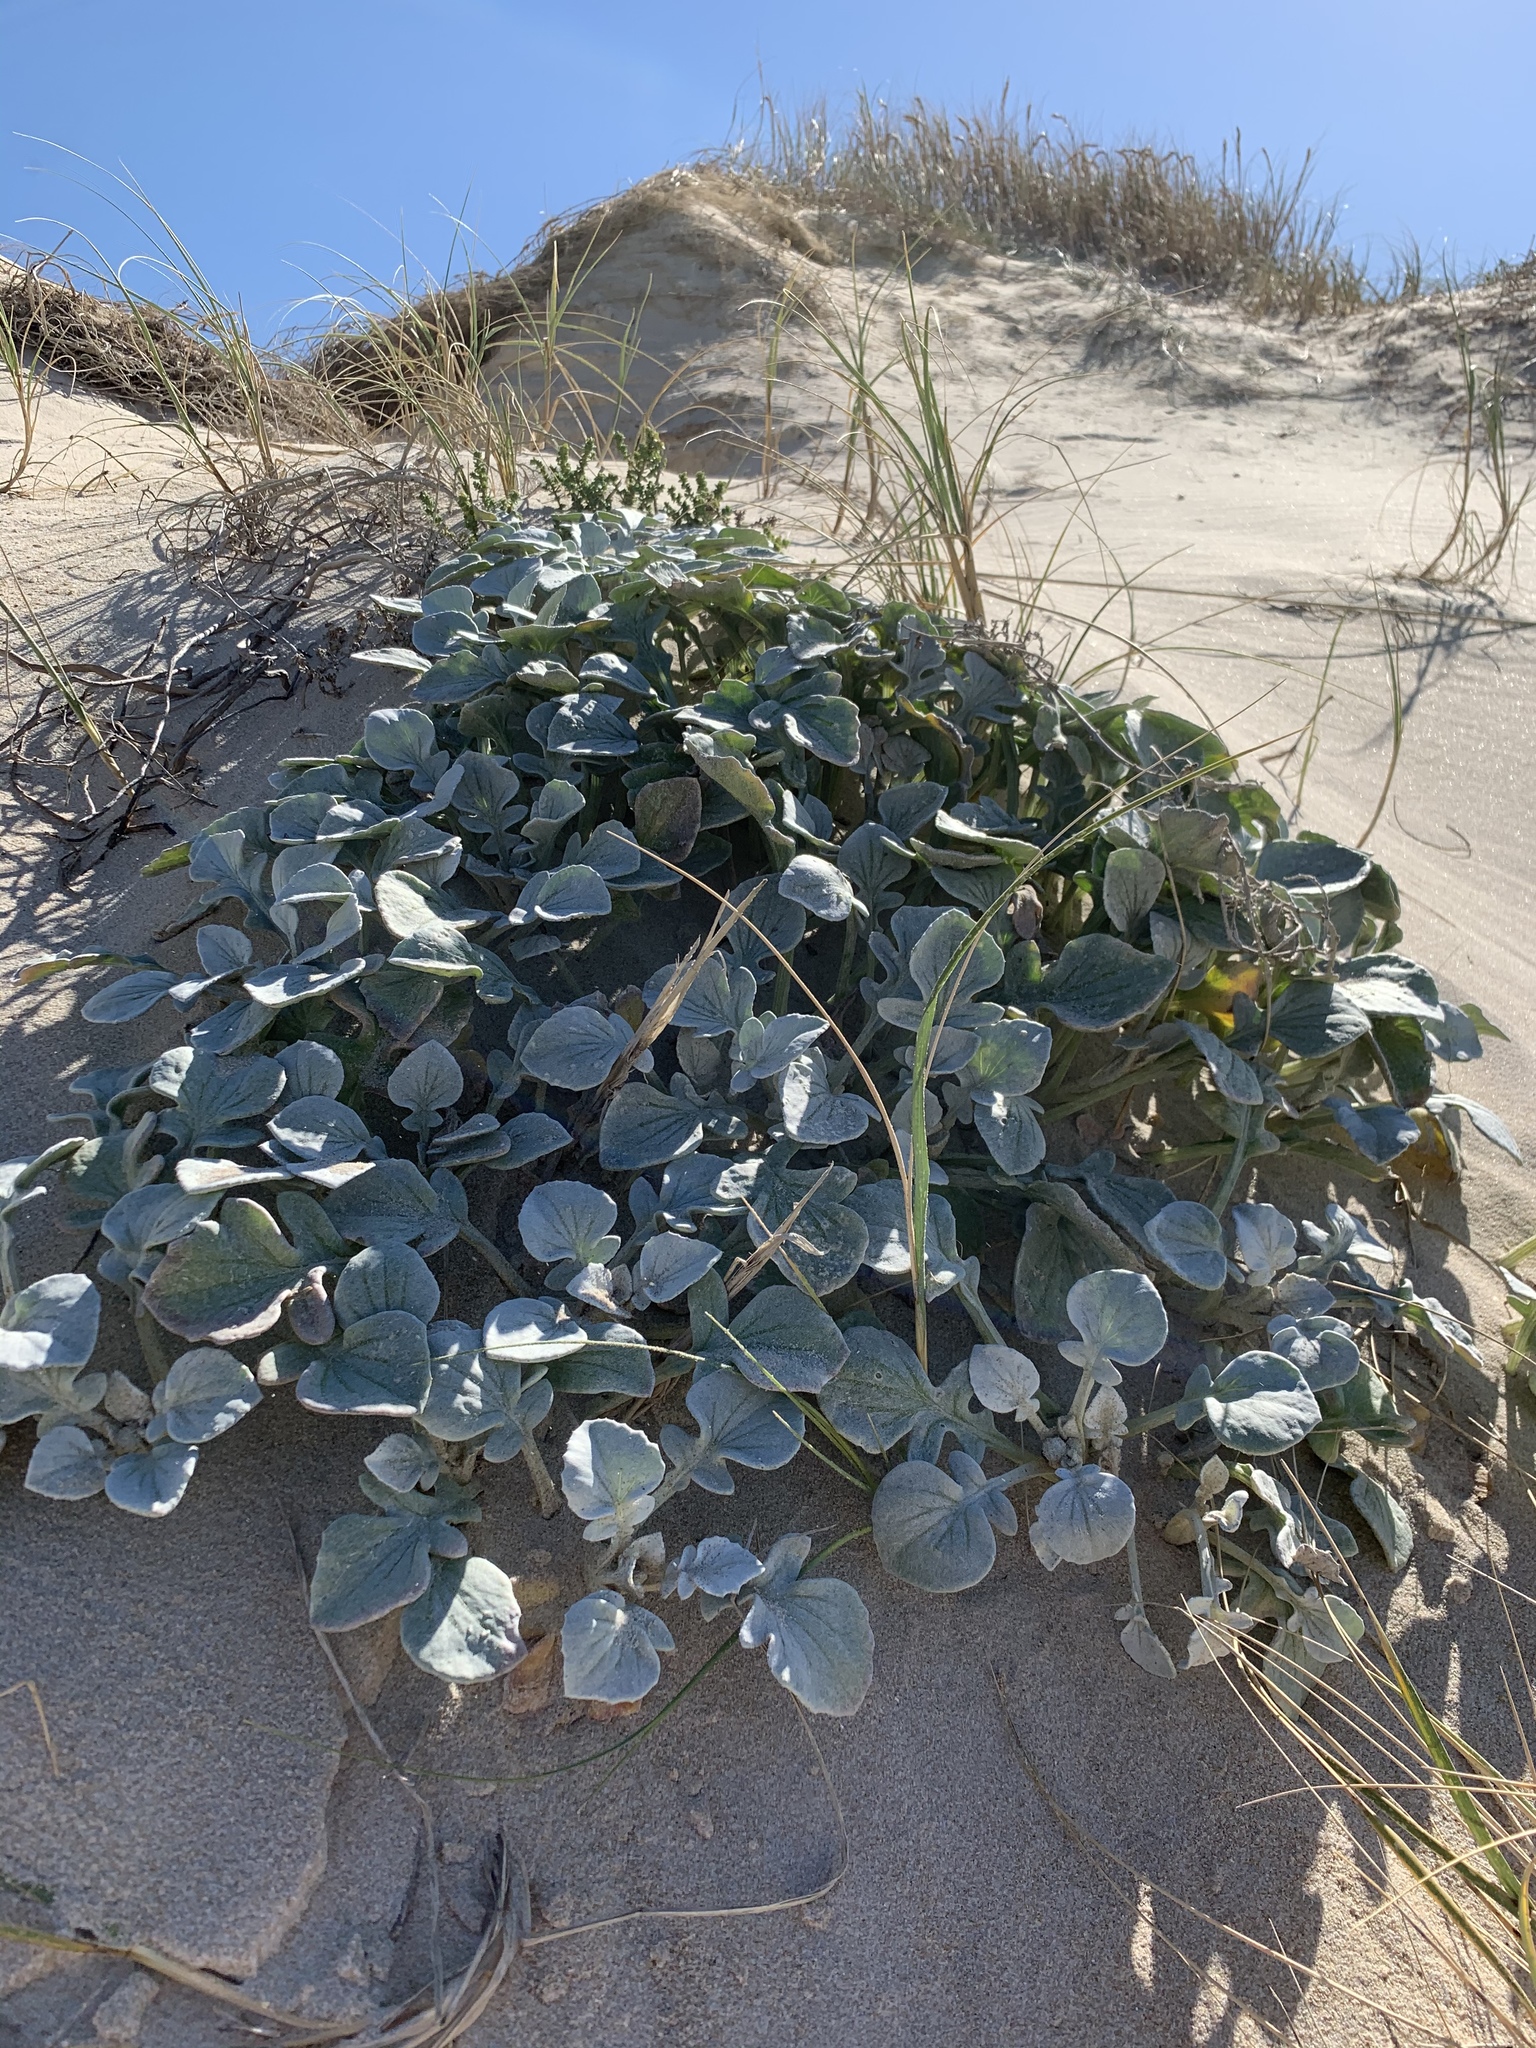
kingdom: Plantae
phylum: Tracheophyta
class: Magnoliopsida
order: Asterales
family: Asteraceae
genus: Arctotheca
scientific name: Arctotheca populifolia
